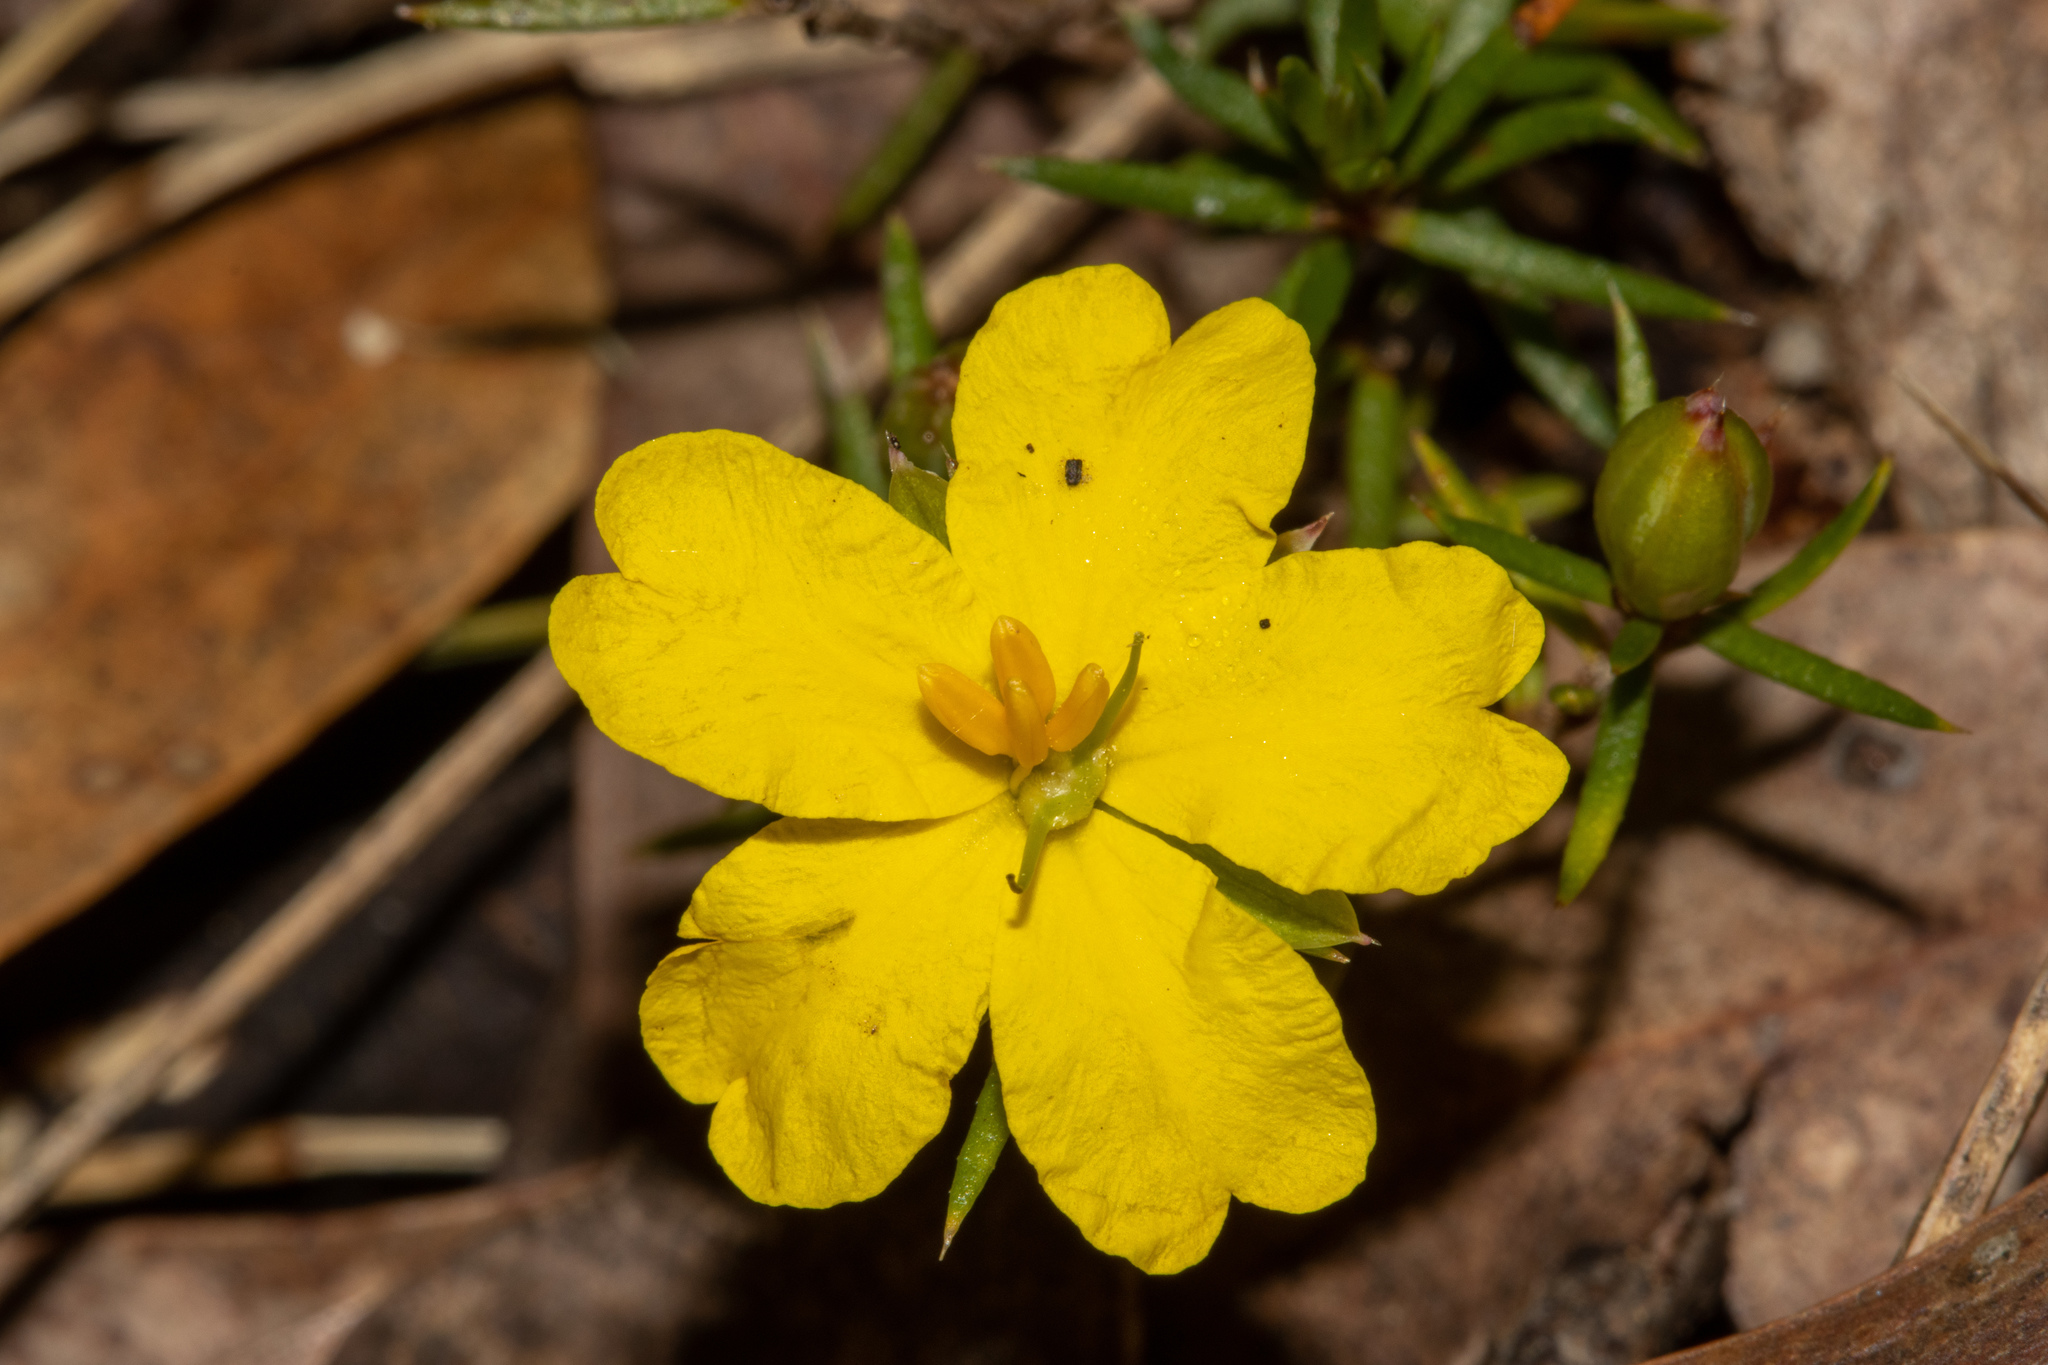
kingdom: Plantae
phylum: Tracheophyta
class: Magnoliopsida
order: Dilleniales
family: Dilleniaceae
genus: Hibbertia
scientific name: Hibbertia exutiacies
